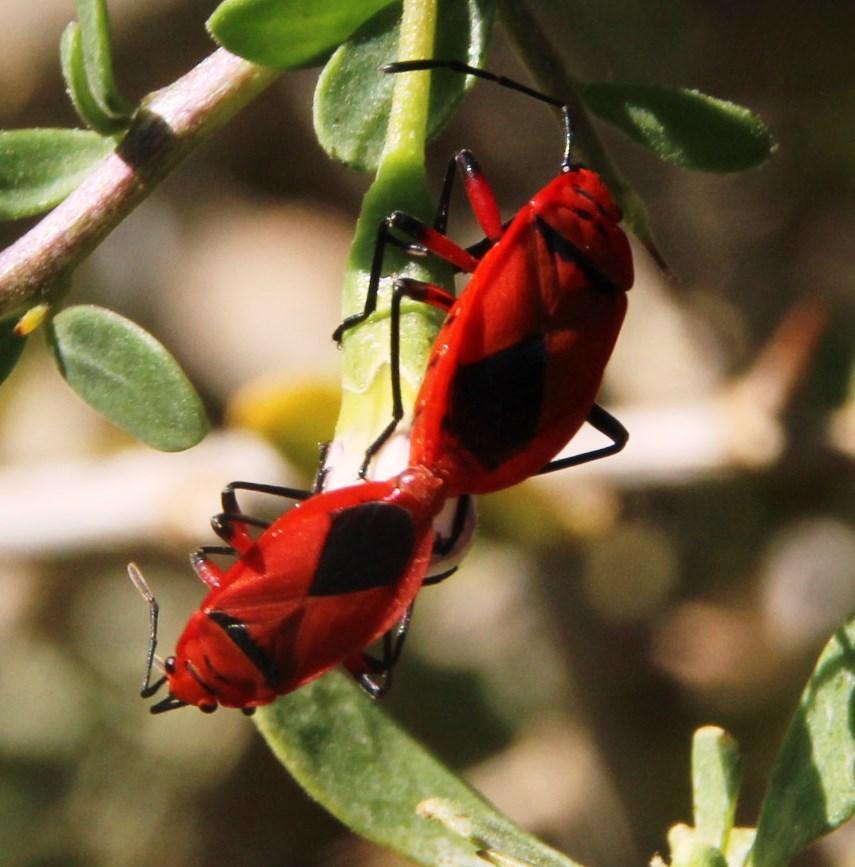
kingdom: Animalia
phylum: Arthropoda
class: Insecta
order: Hemiptera
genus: Cenaeus
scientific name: Cenaeus
